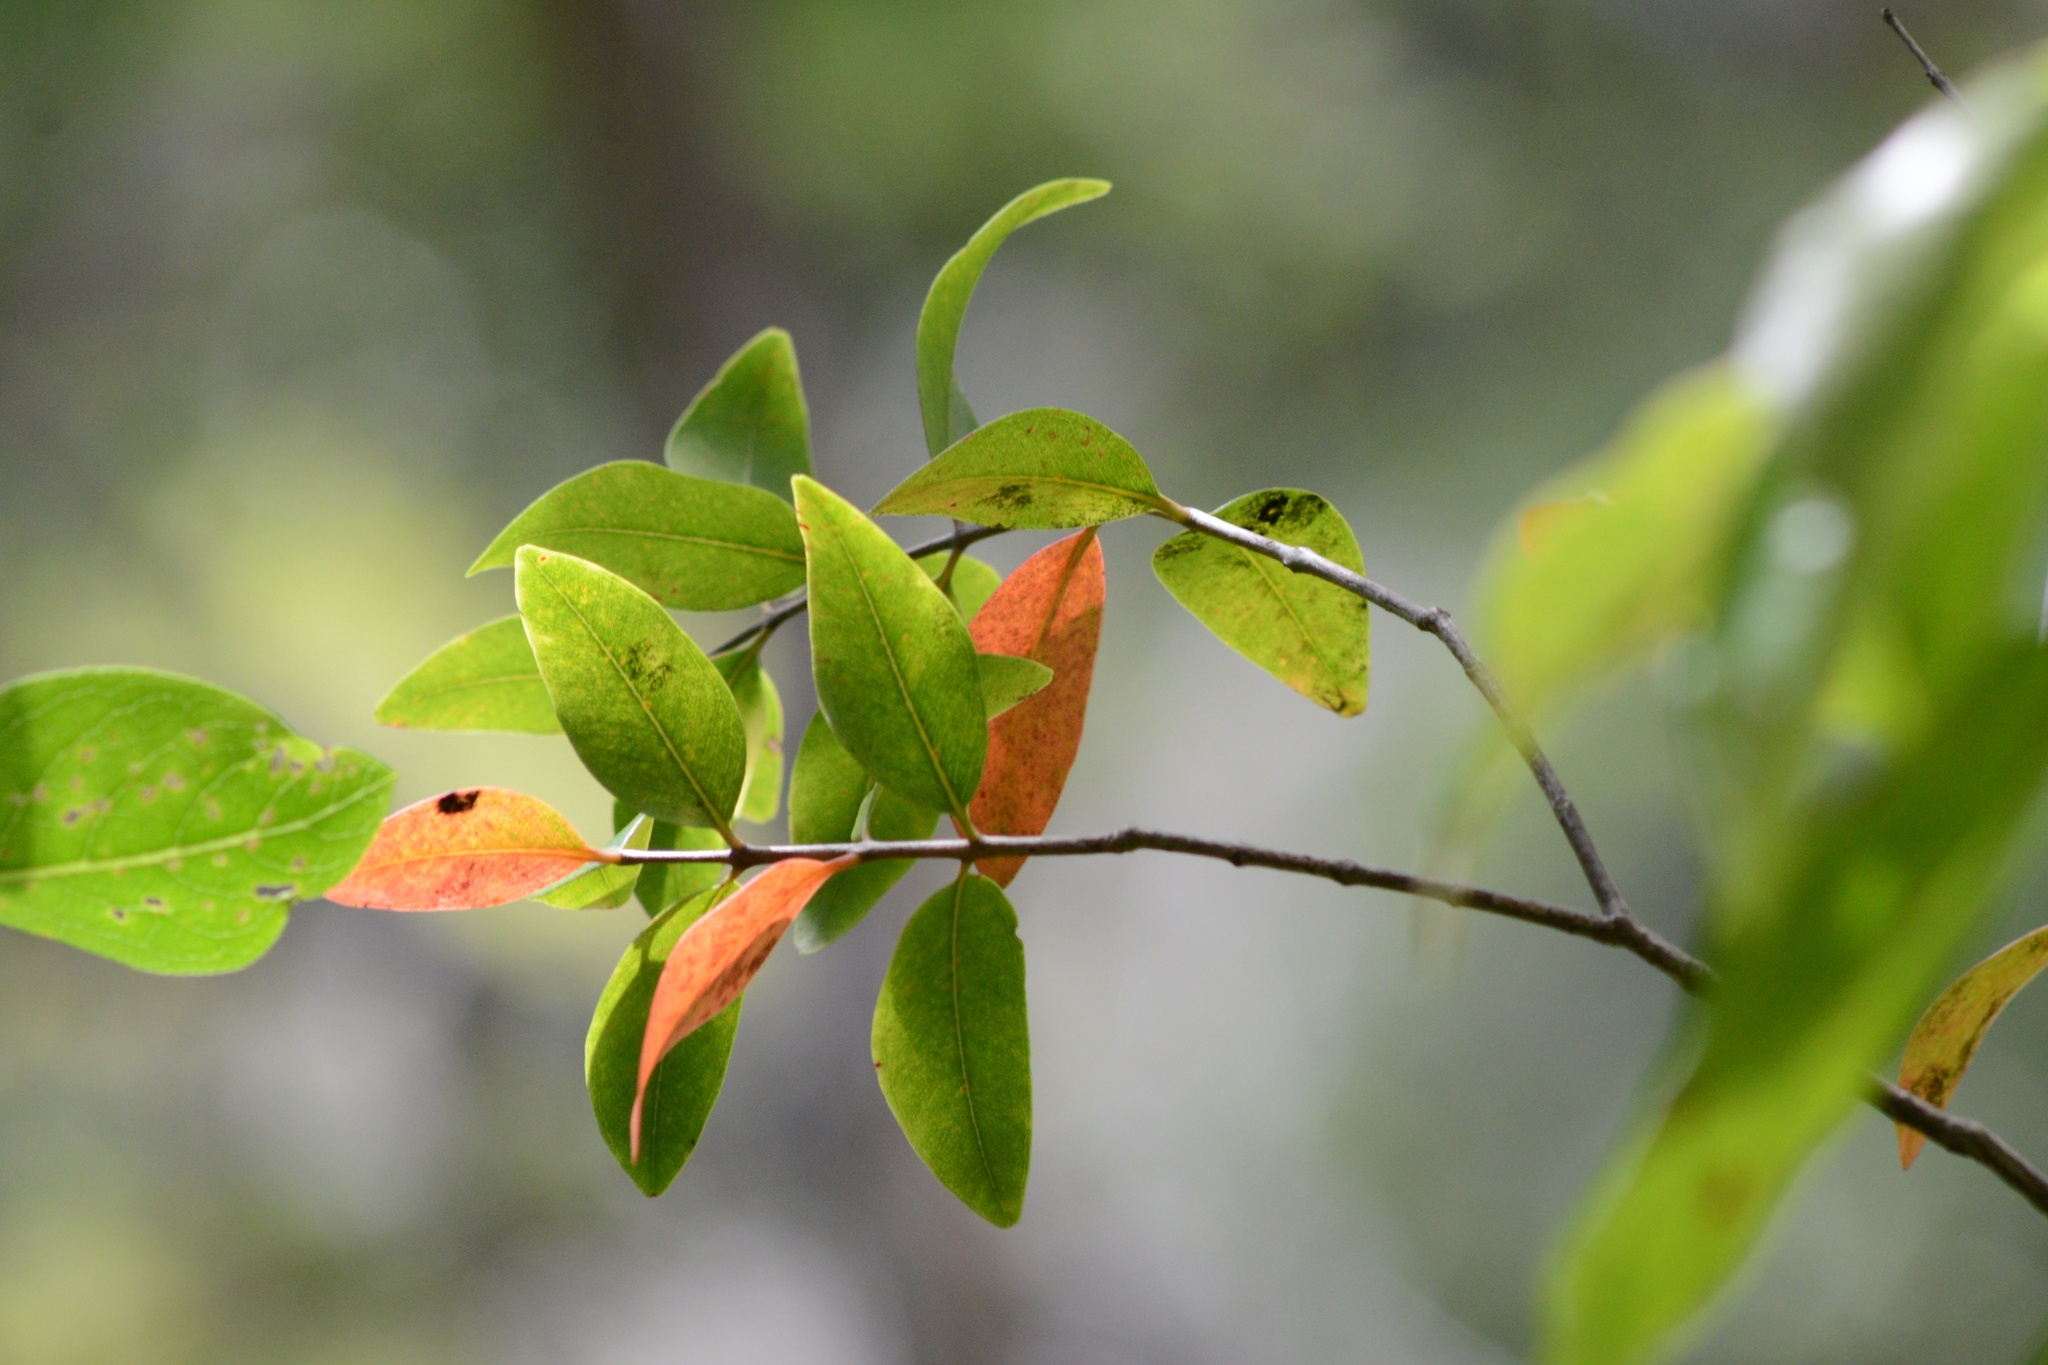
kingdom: Plantae
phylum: Tracheophyta
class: Magnoliopsida
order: Myrtales
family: Myrtaceae
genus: Metrosideros
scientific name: Metrosideros robusta
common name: Northern rata
